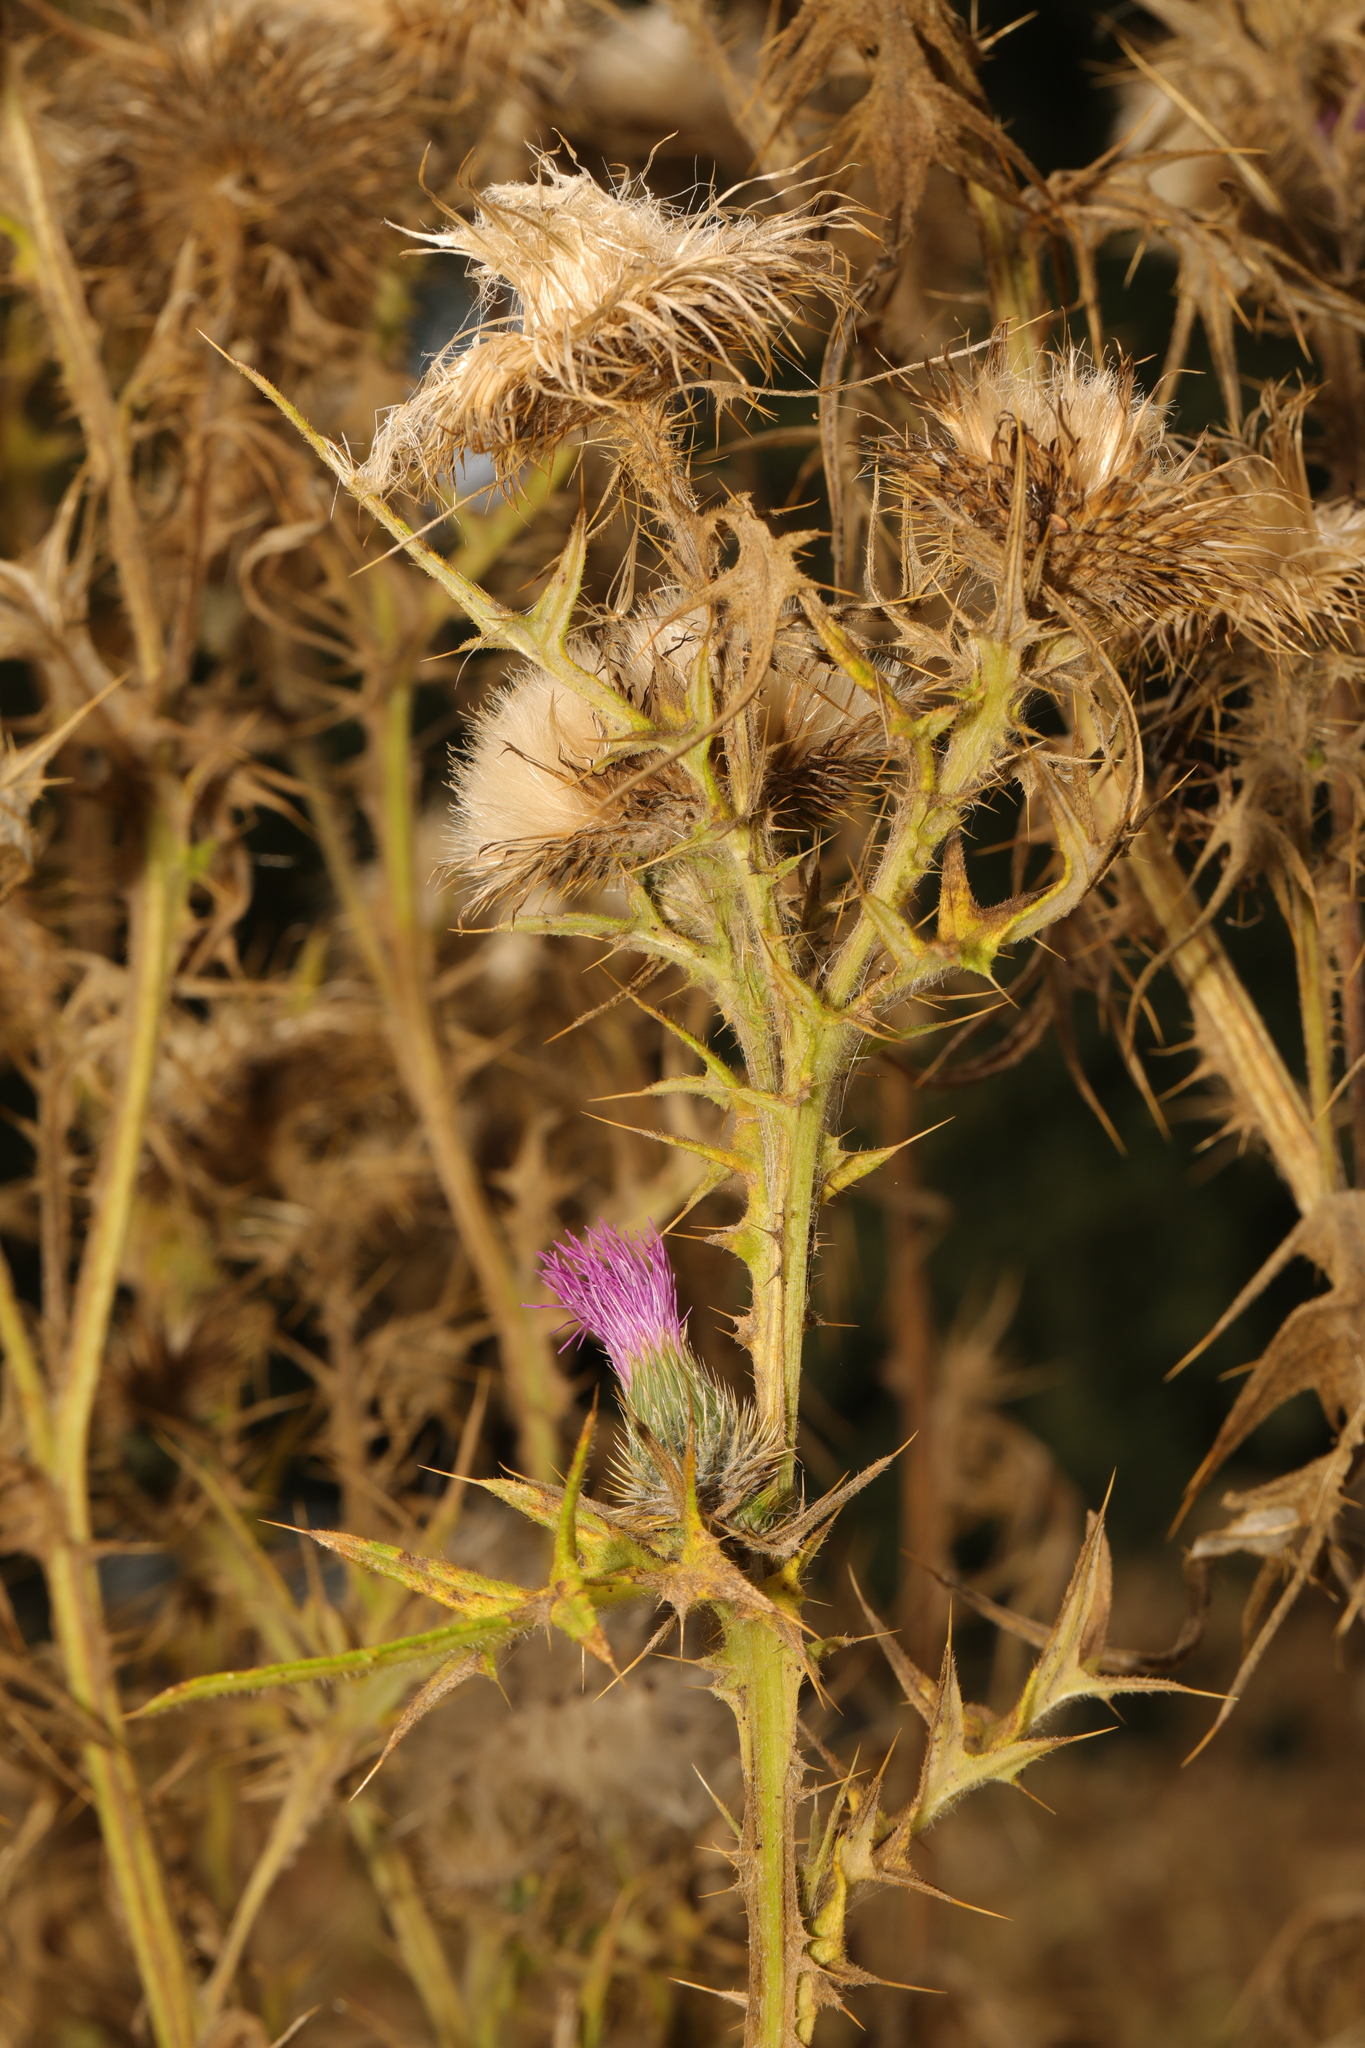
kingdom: Plantae
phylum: Tracheophyta
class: Magnoliopsida
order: Asterales
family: Asteraceae
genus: Cirsium
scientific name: Cirsium vulgare
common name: Bull thistle
